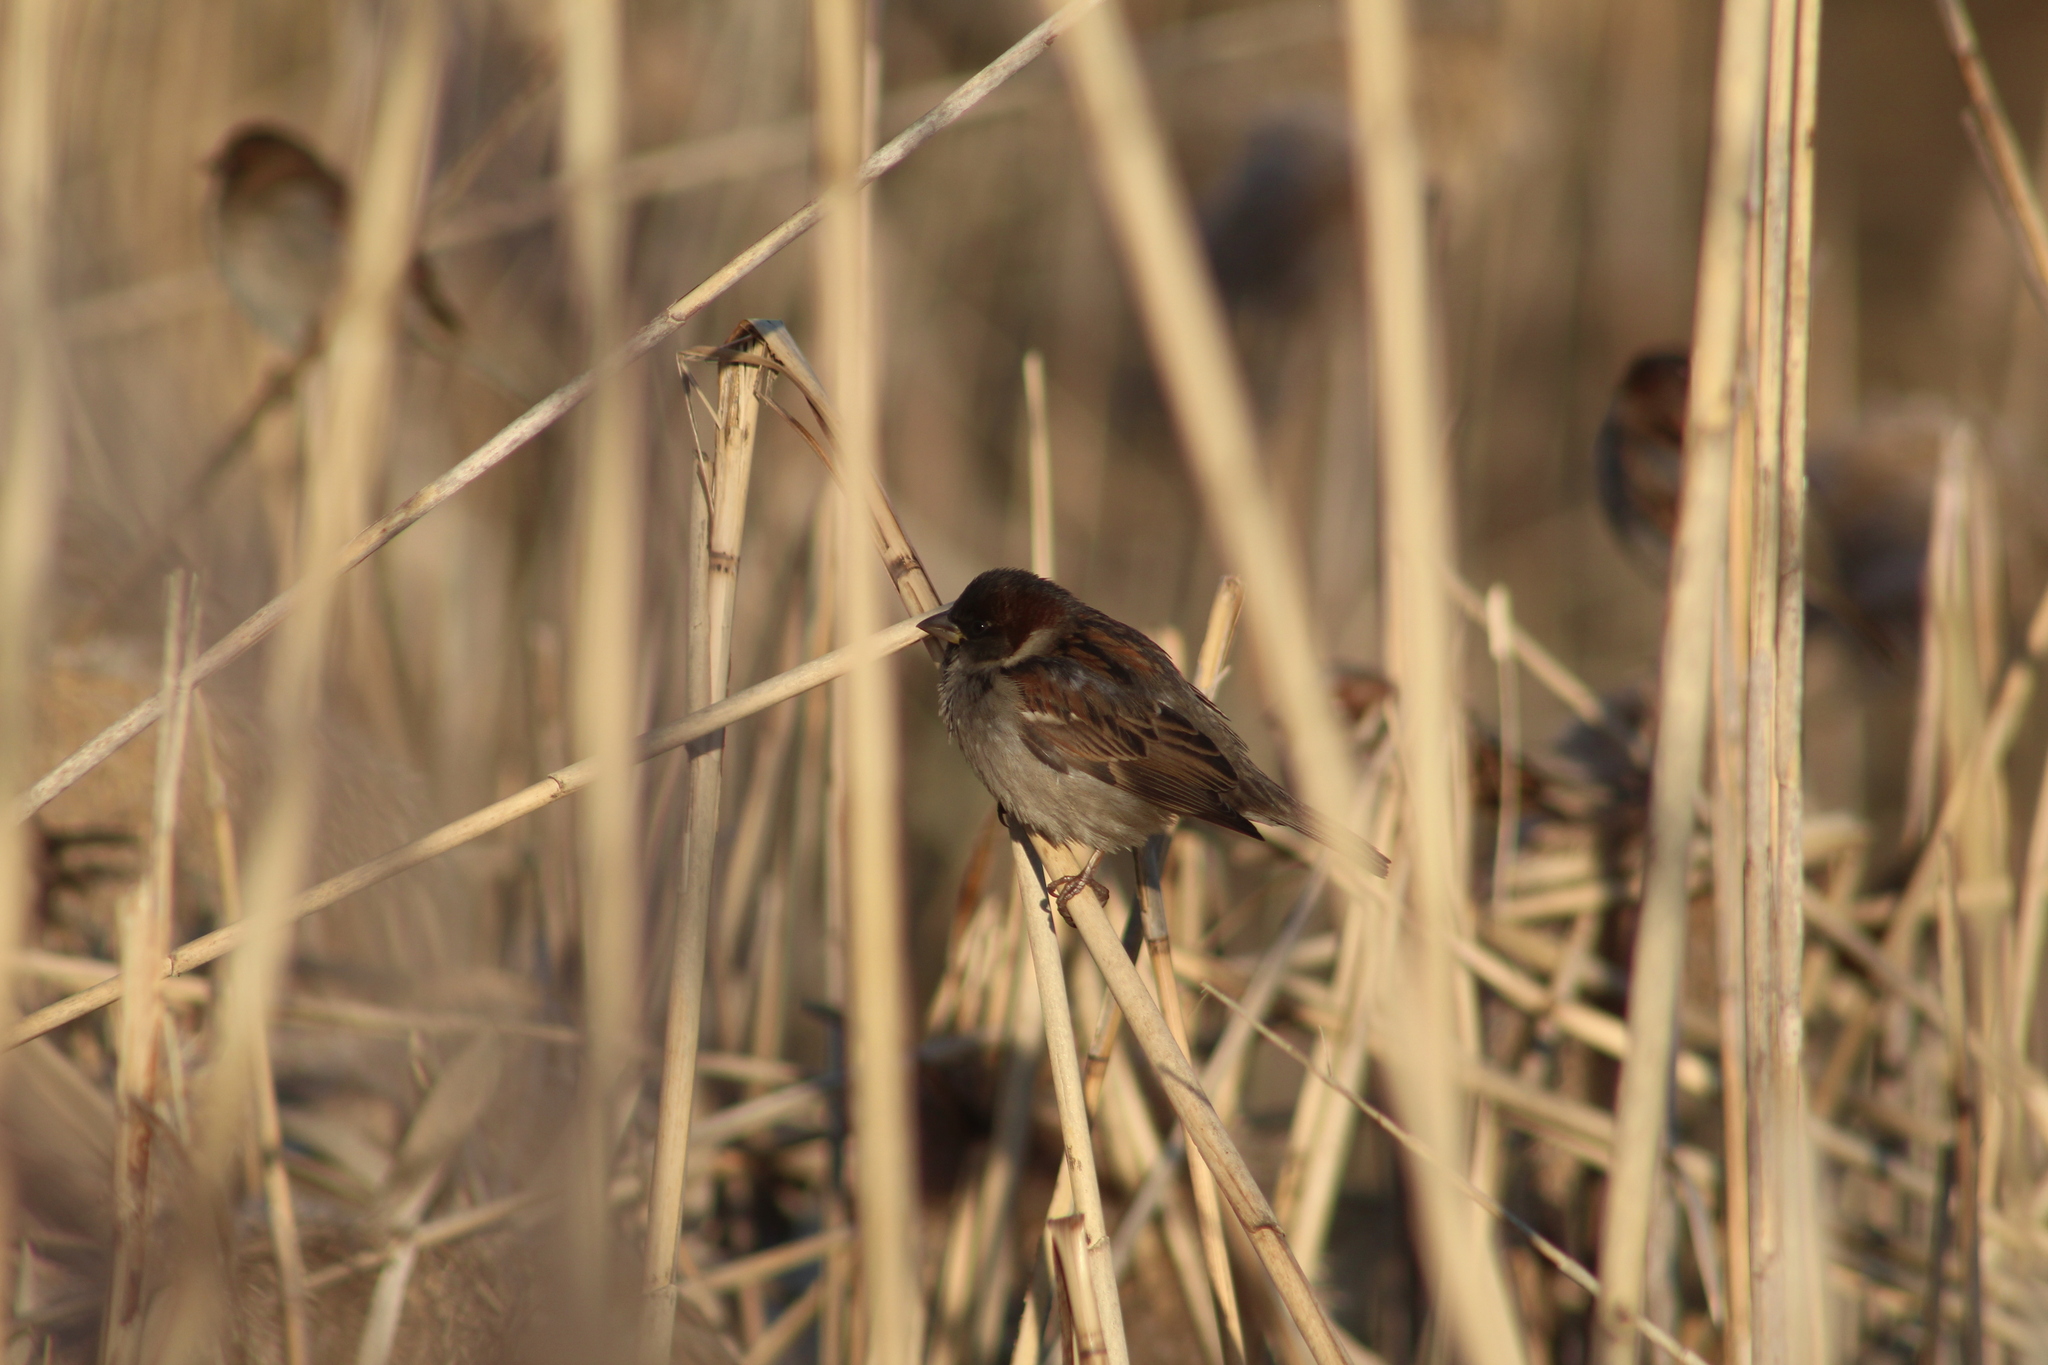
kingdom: Animalia
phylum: Chordata
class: Aves
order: Passeriformes
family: Passeridae
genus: Passer
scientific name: Passer domesticus
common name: House sparrow
